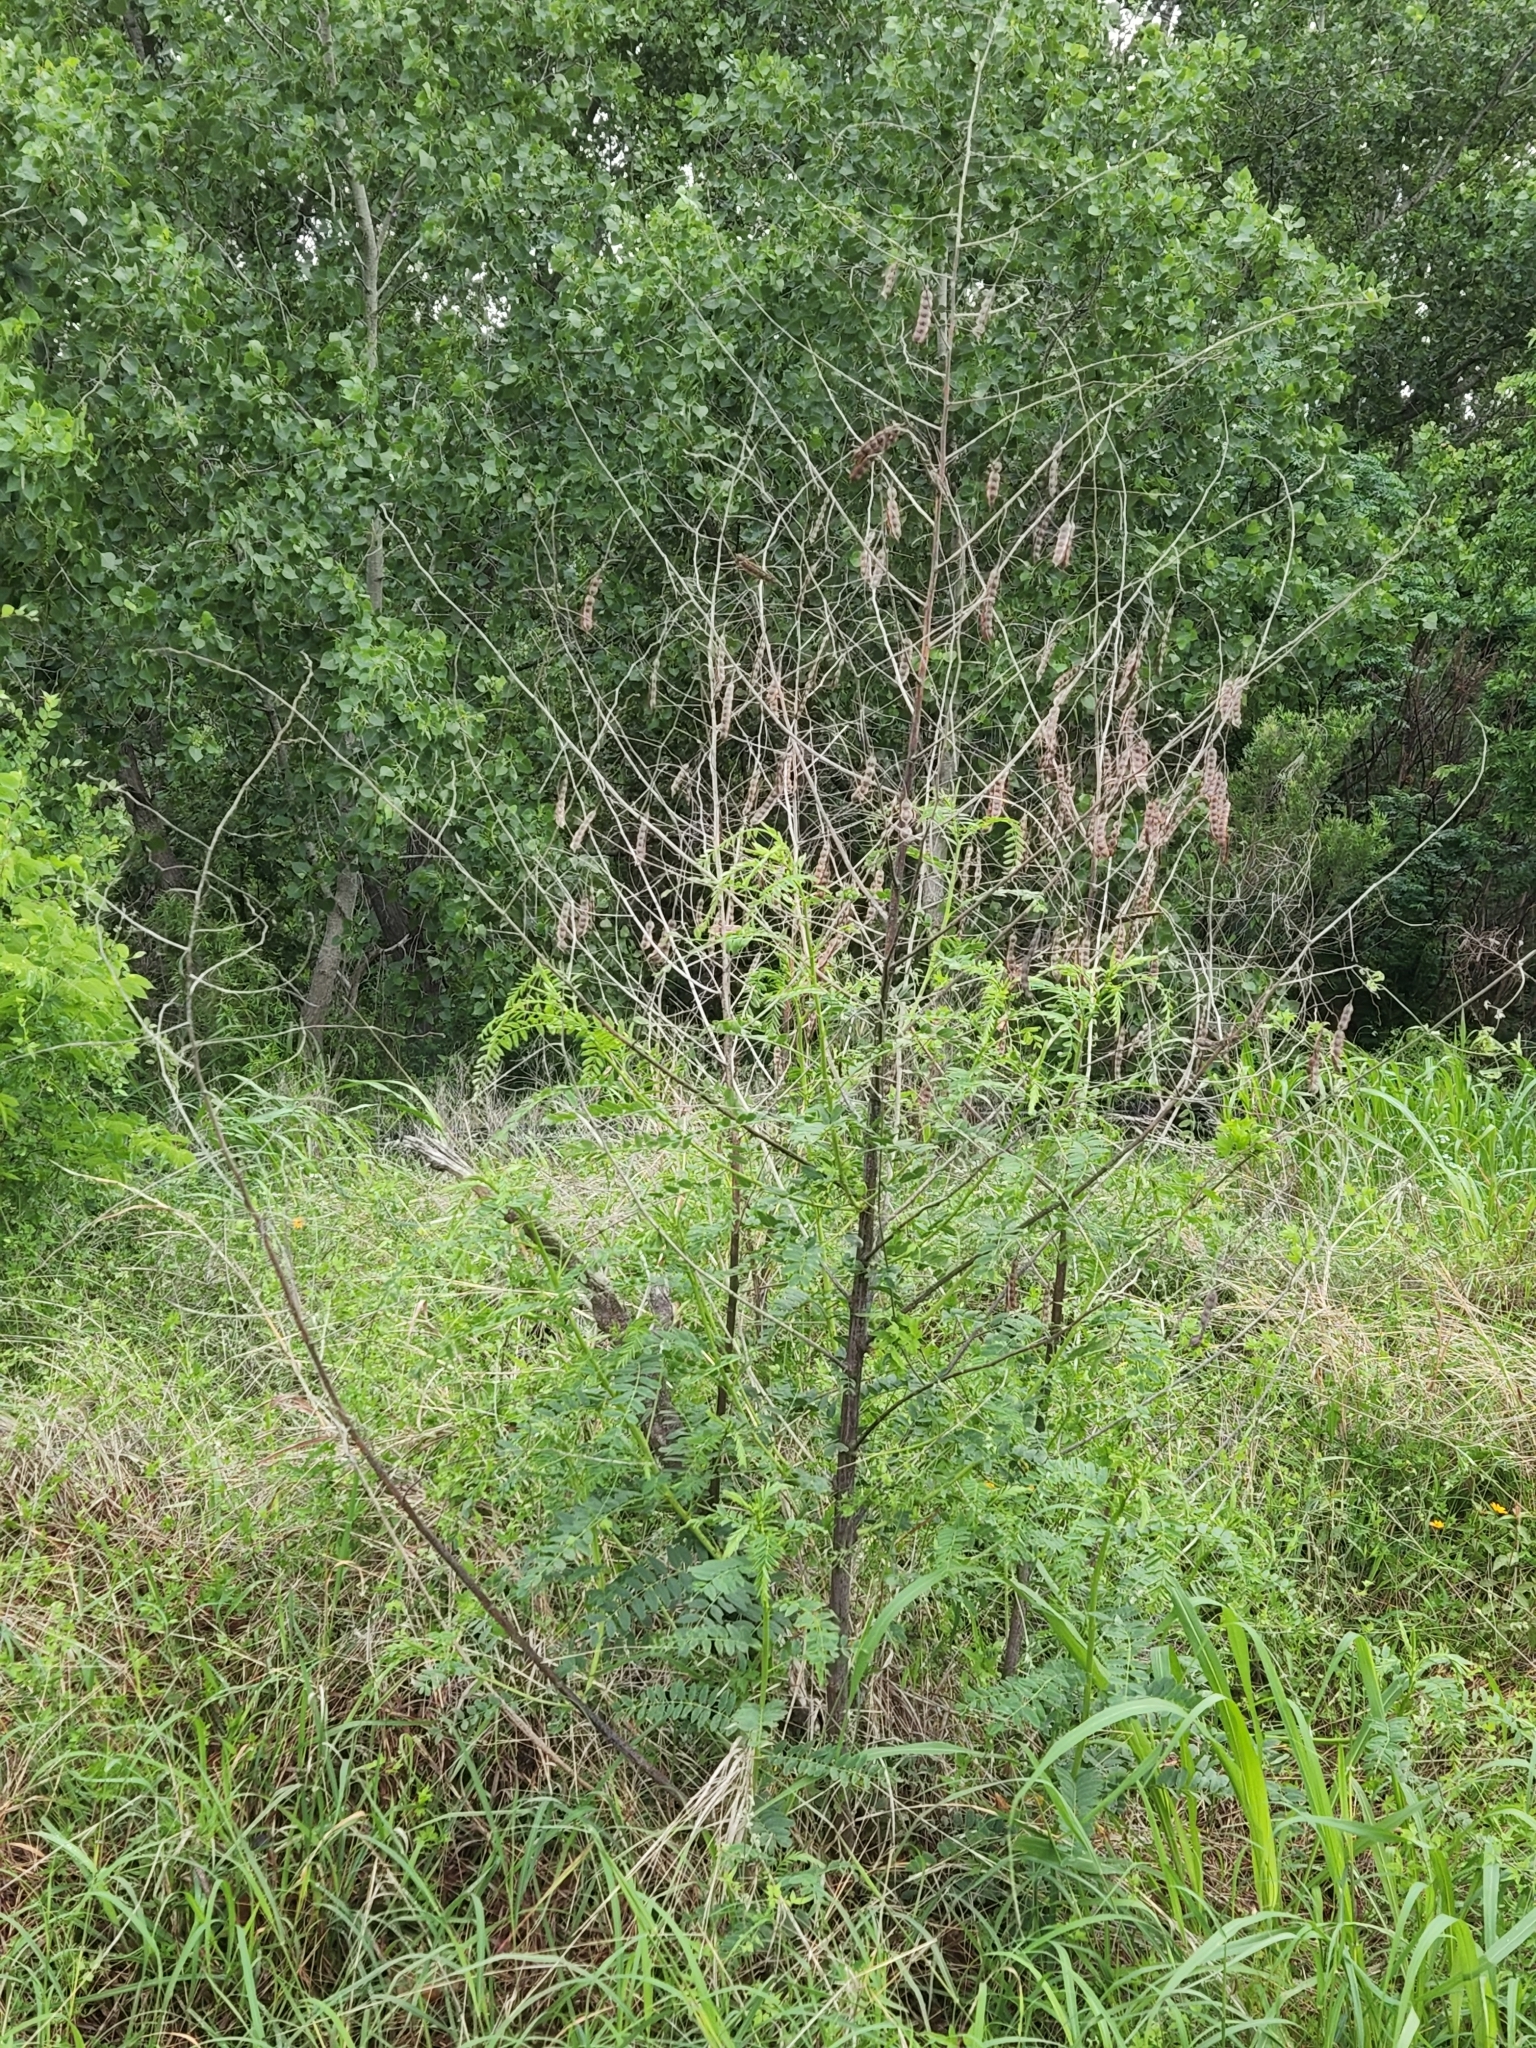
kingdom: Plantae
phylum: Tracheophyta
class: Magnoliopsida
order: Fabales
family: Fabaceae
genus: Sesbania
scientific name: Sesbania drummondii
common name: Poison-bean
